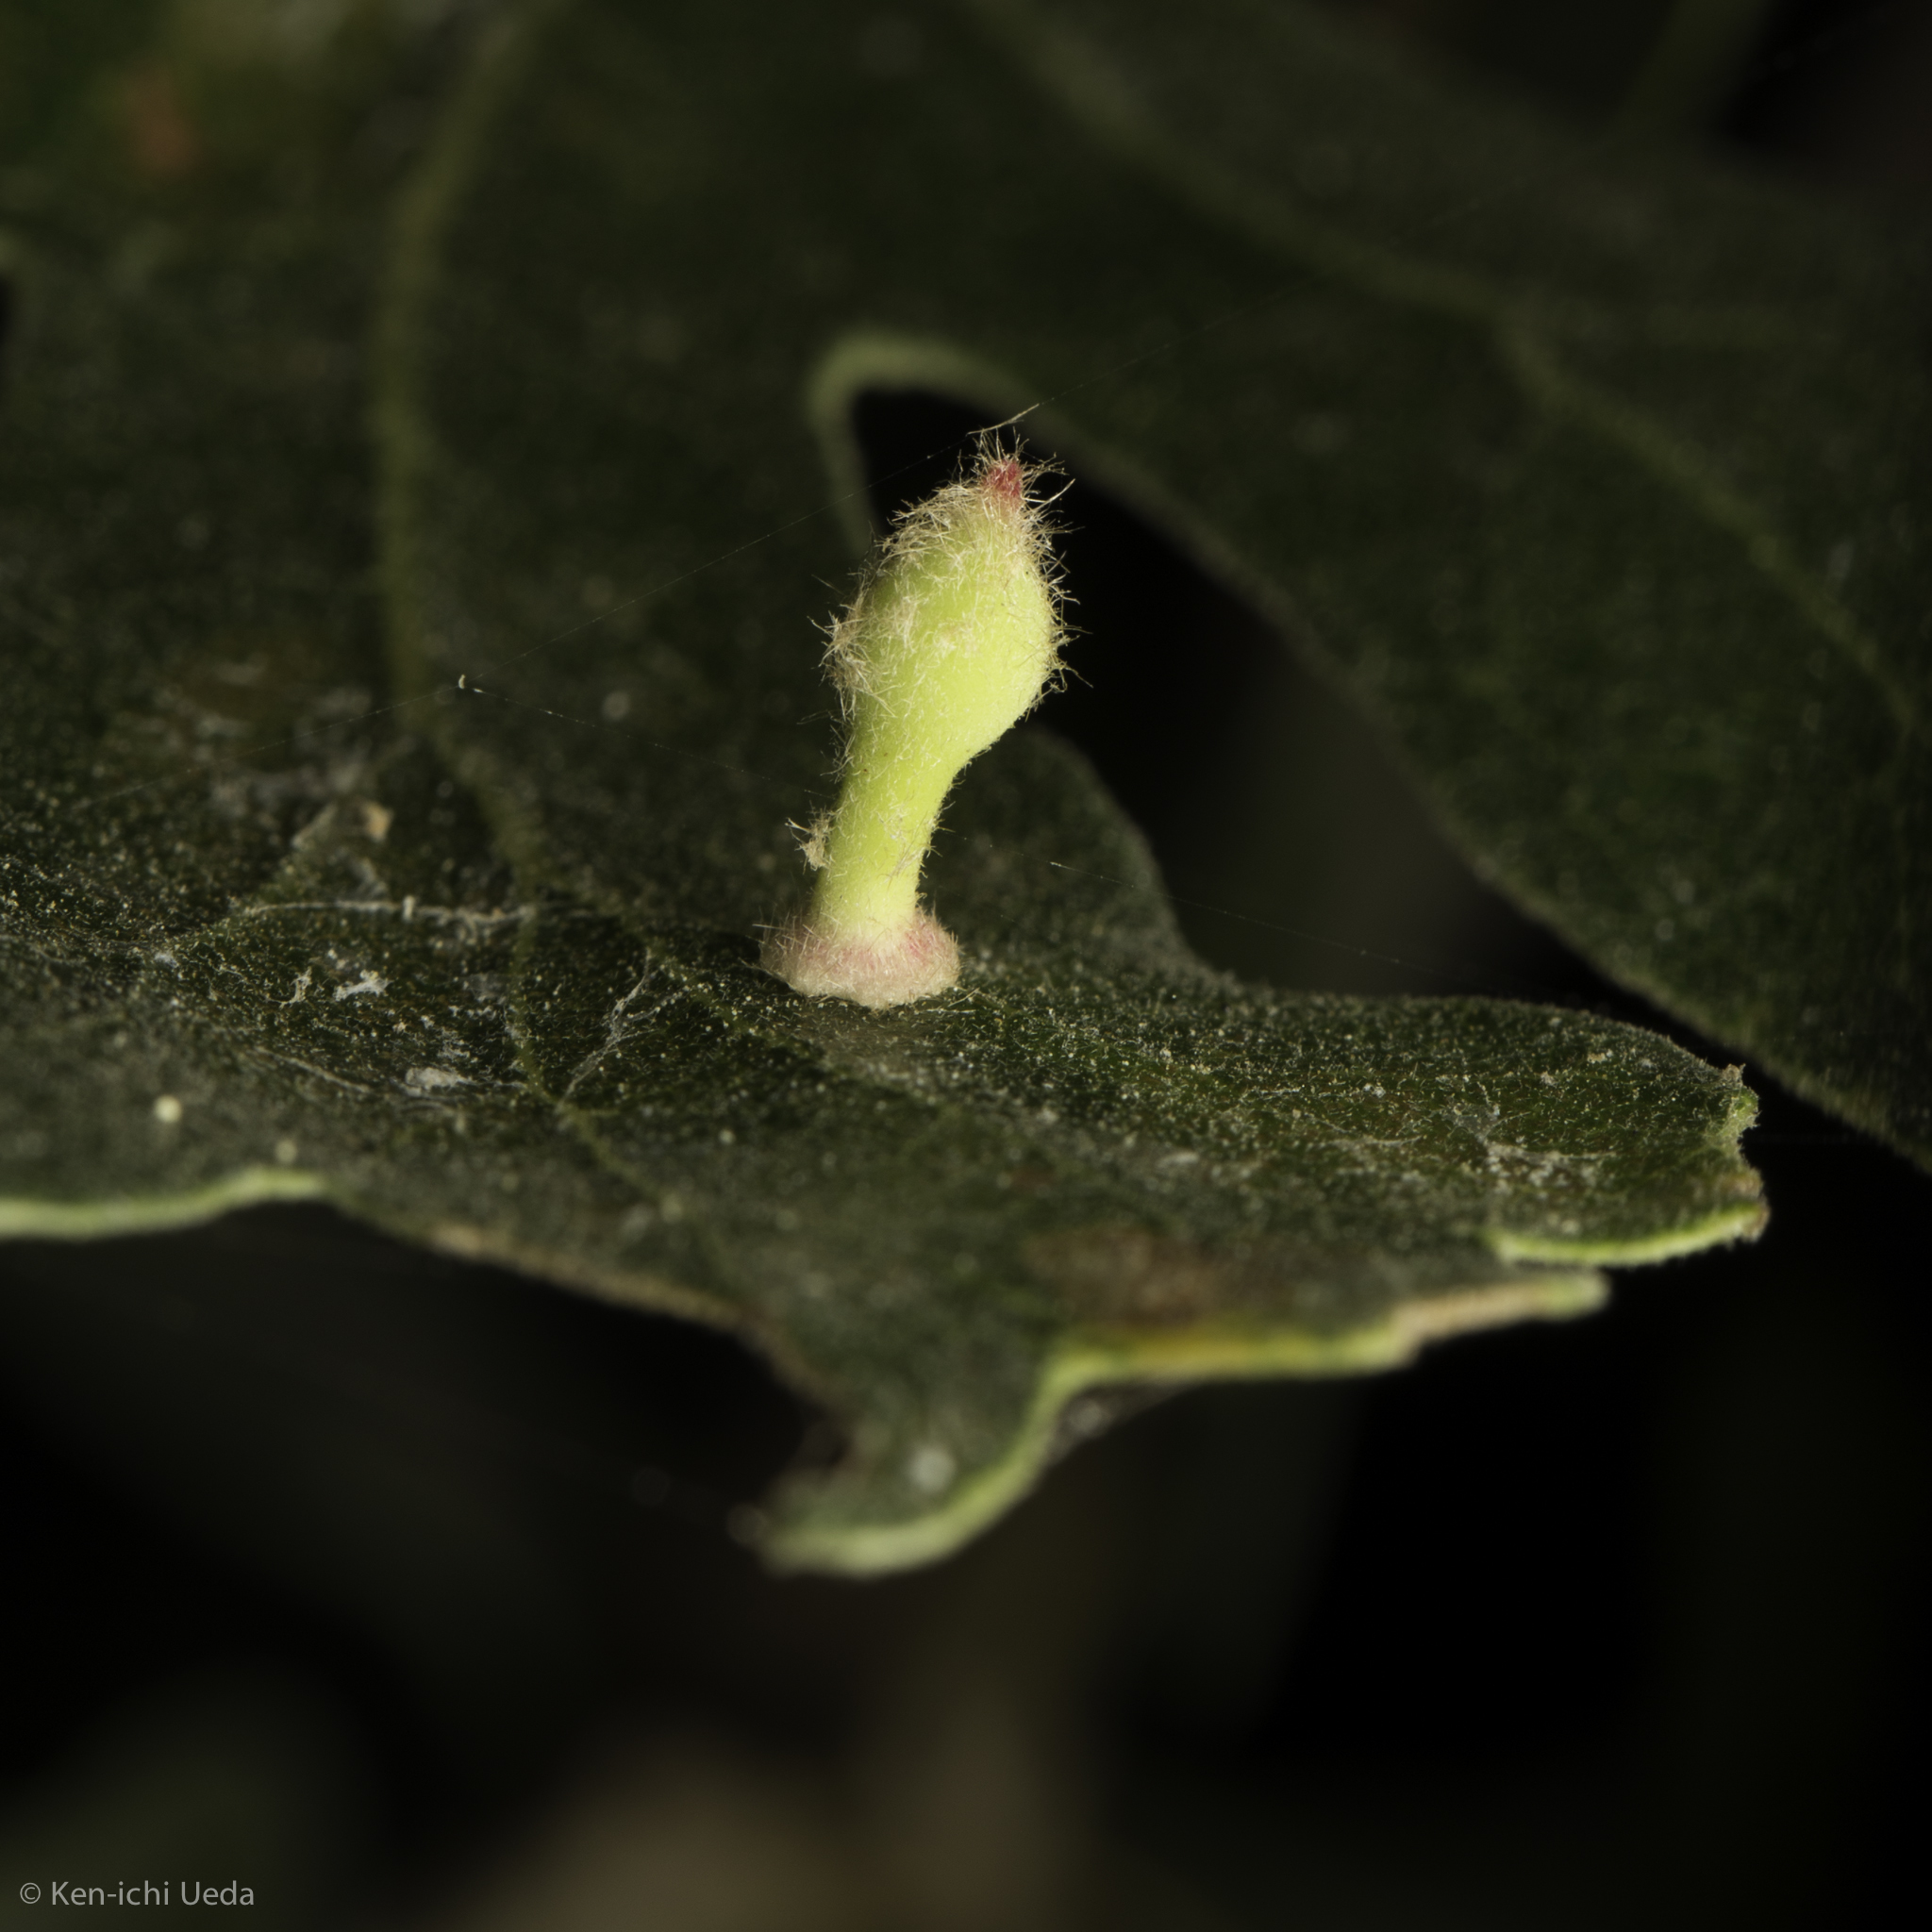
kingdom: Animalia
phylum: Arthropoda
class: Insecta
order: Hymenoptera
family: Cynipidae
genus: Atrusca
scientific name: Atrusca
